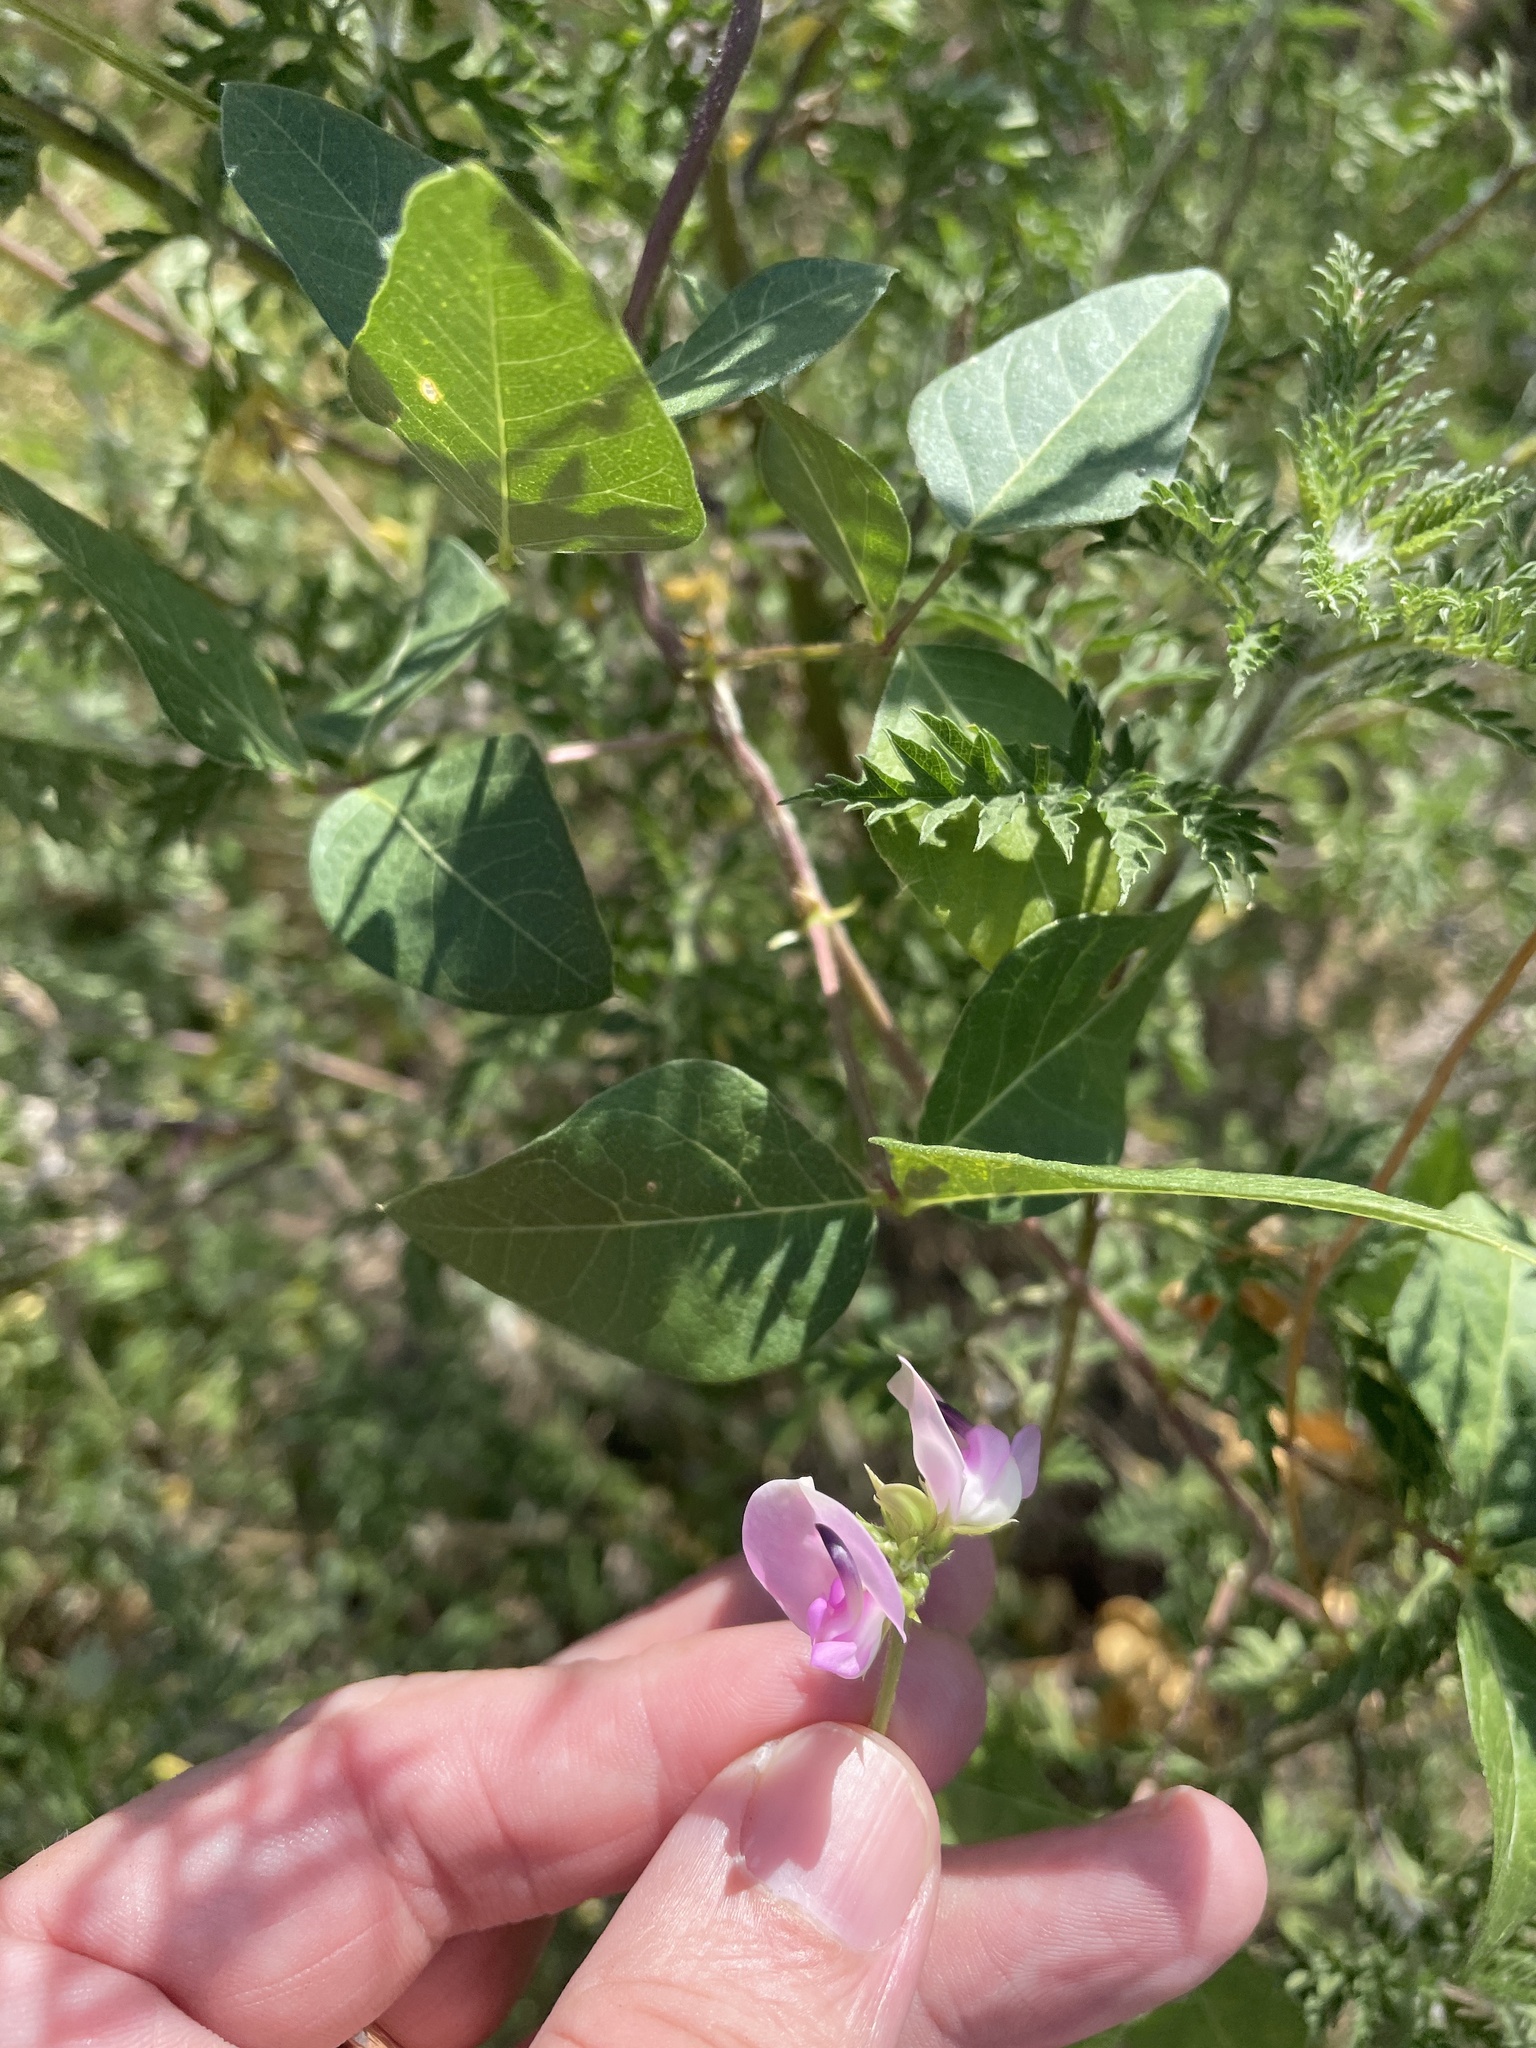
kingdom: Plantae
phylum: Tracheophyta
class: Magnoliopsida
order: Fabales
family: Fabaceae
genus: Strophostyles
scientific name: Strophostyles helvola
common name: Trailing wild bean
